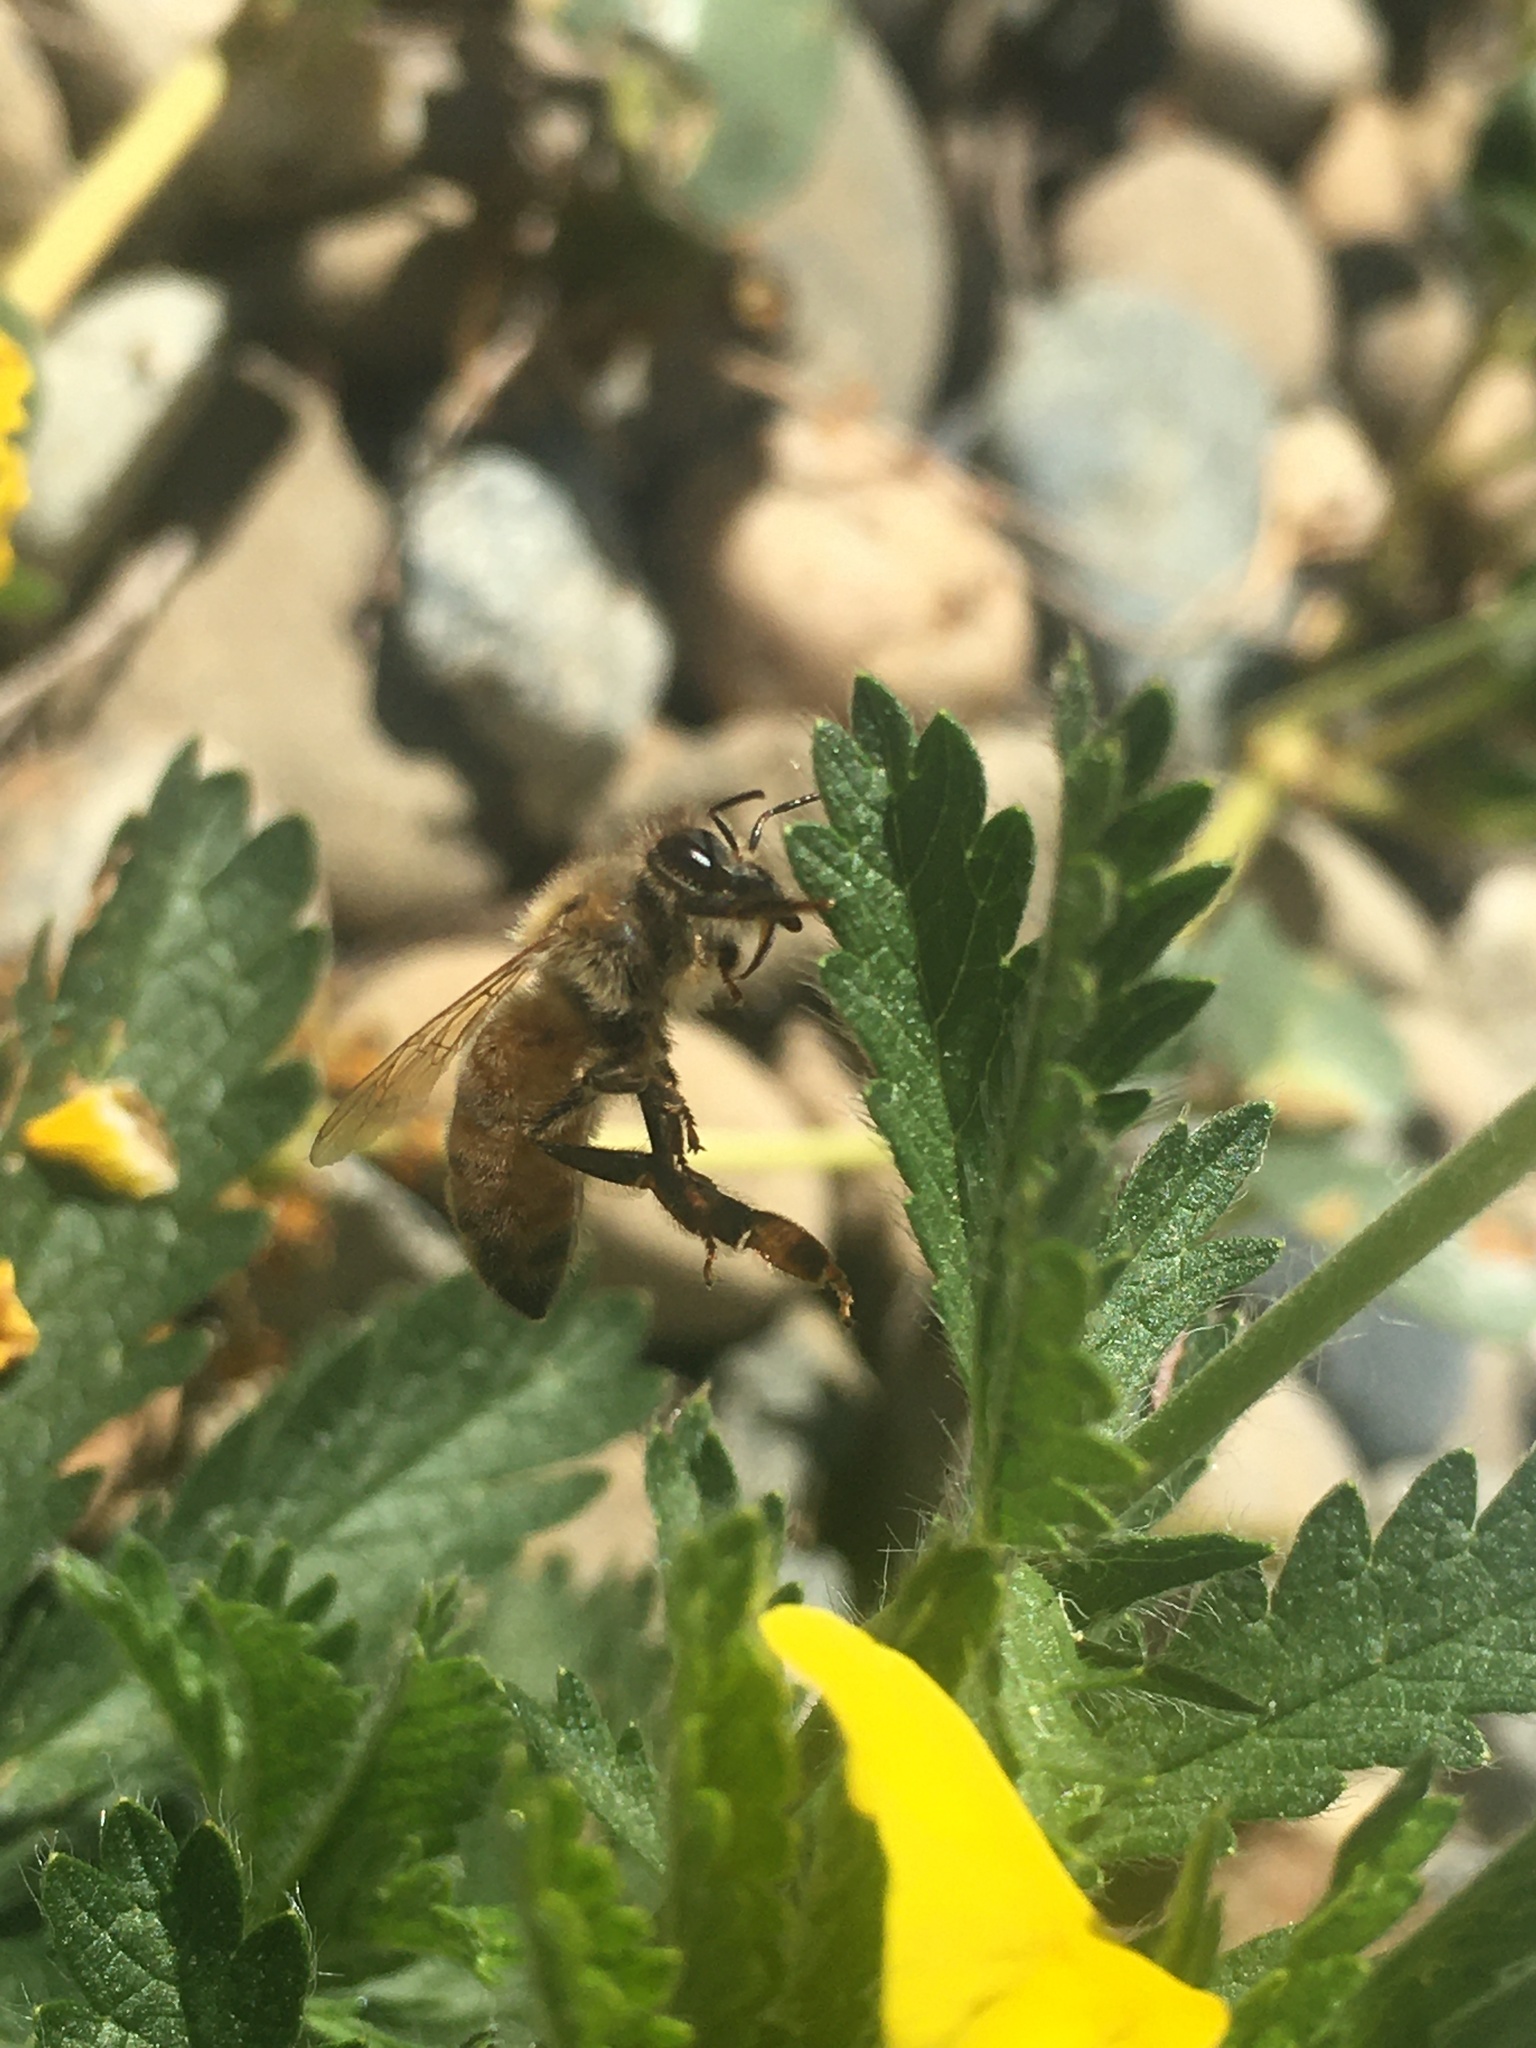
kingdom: Animalia
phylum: Arthropoda
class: Insecta
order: Hymenoptera
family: Apidae
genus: Apis
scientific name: Apis mellifera
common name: Honey bee
